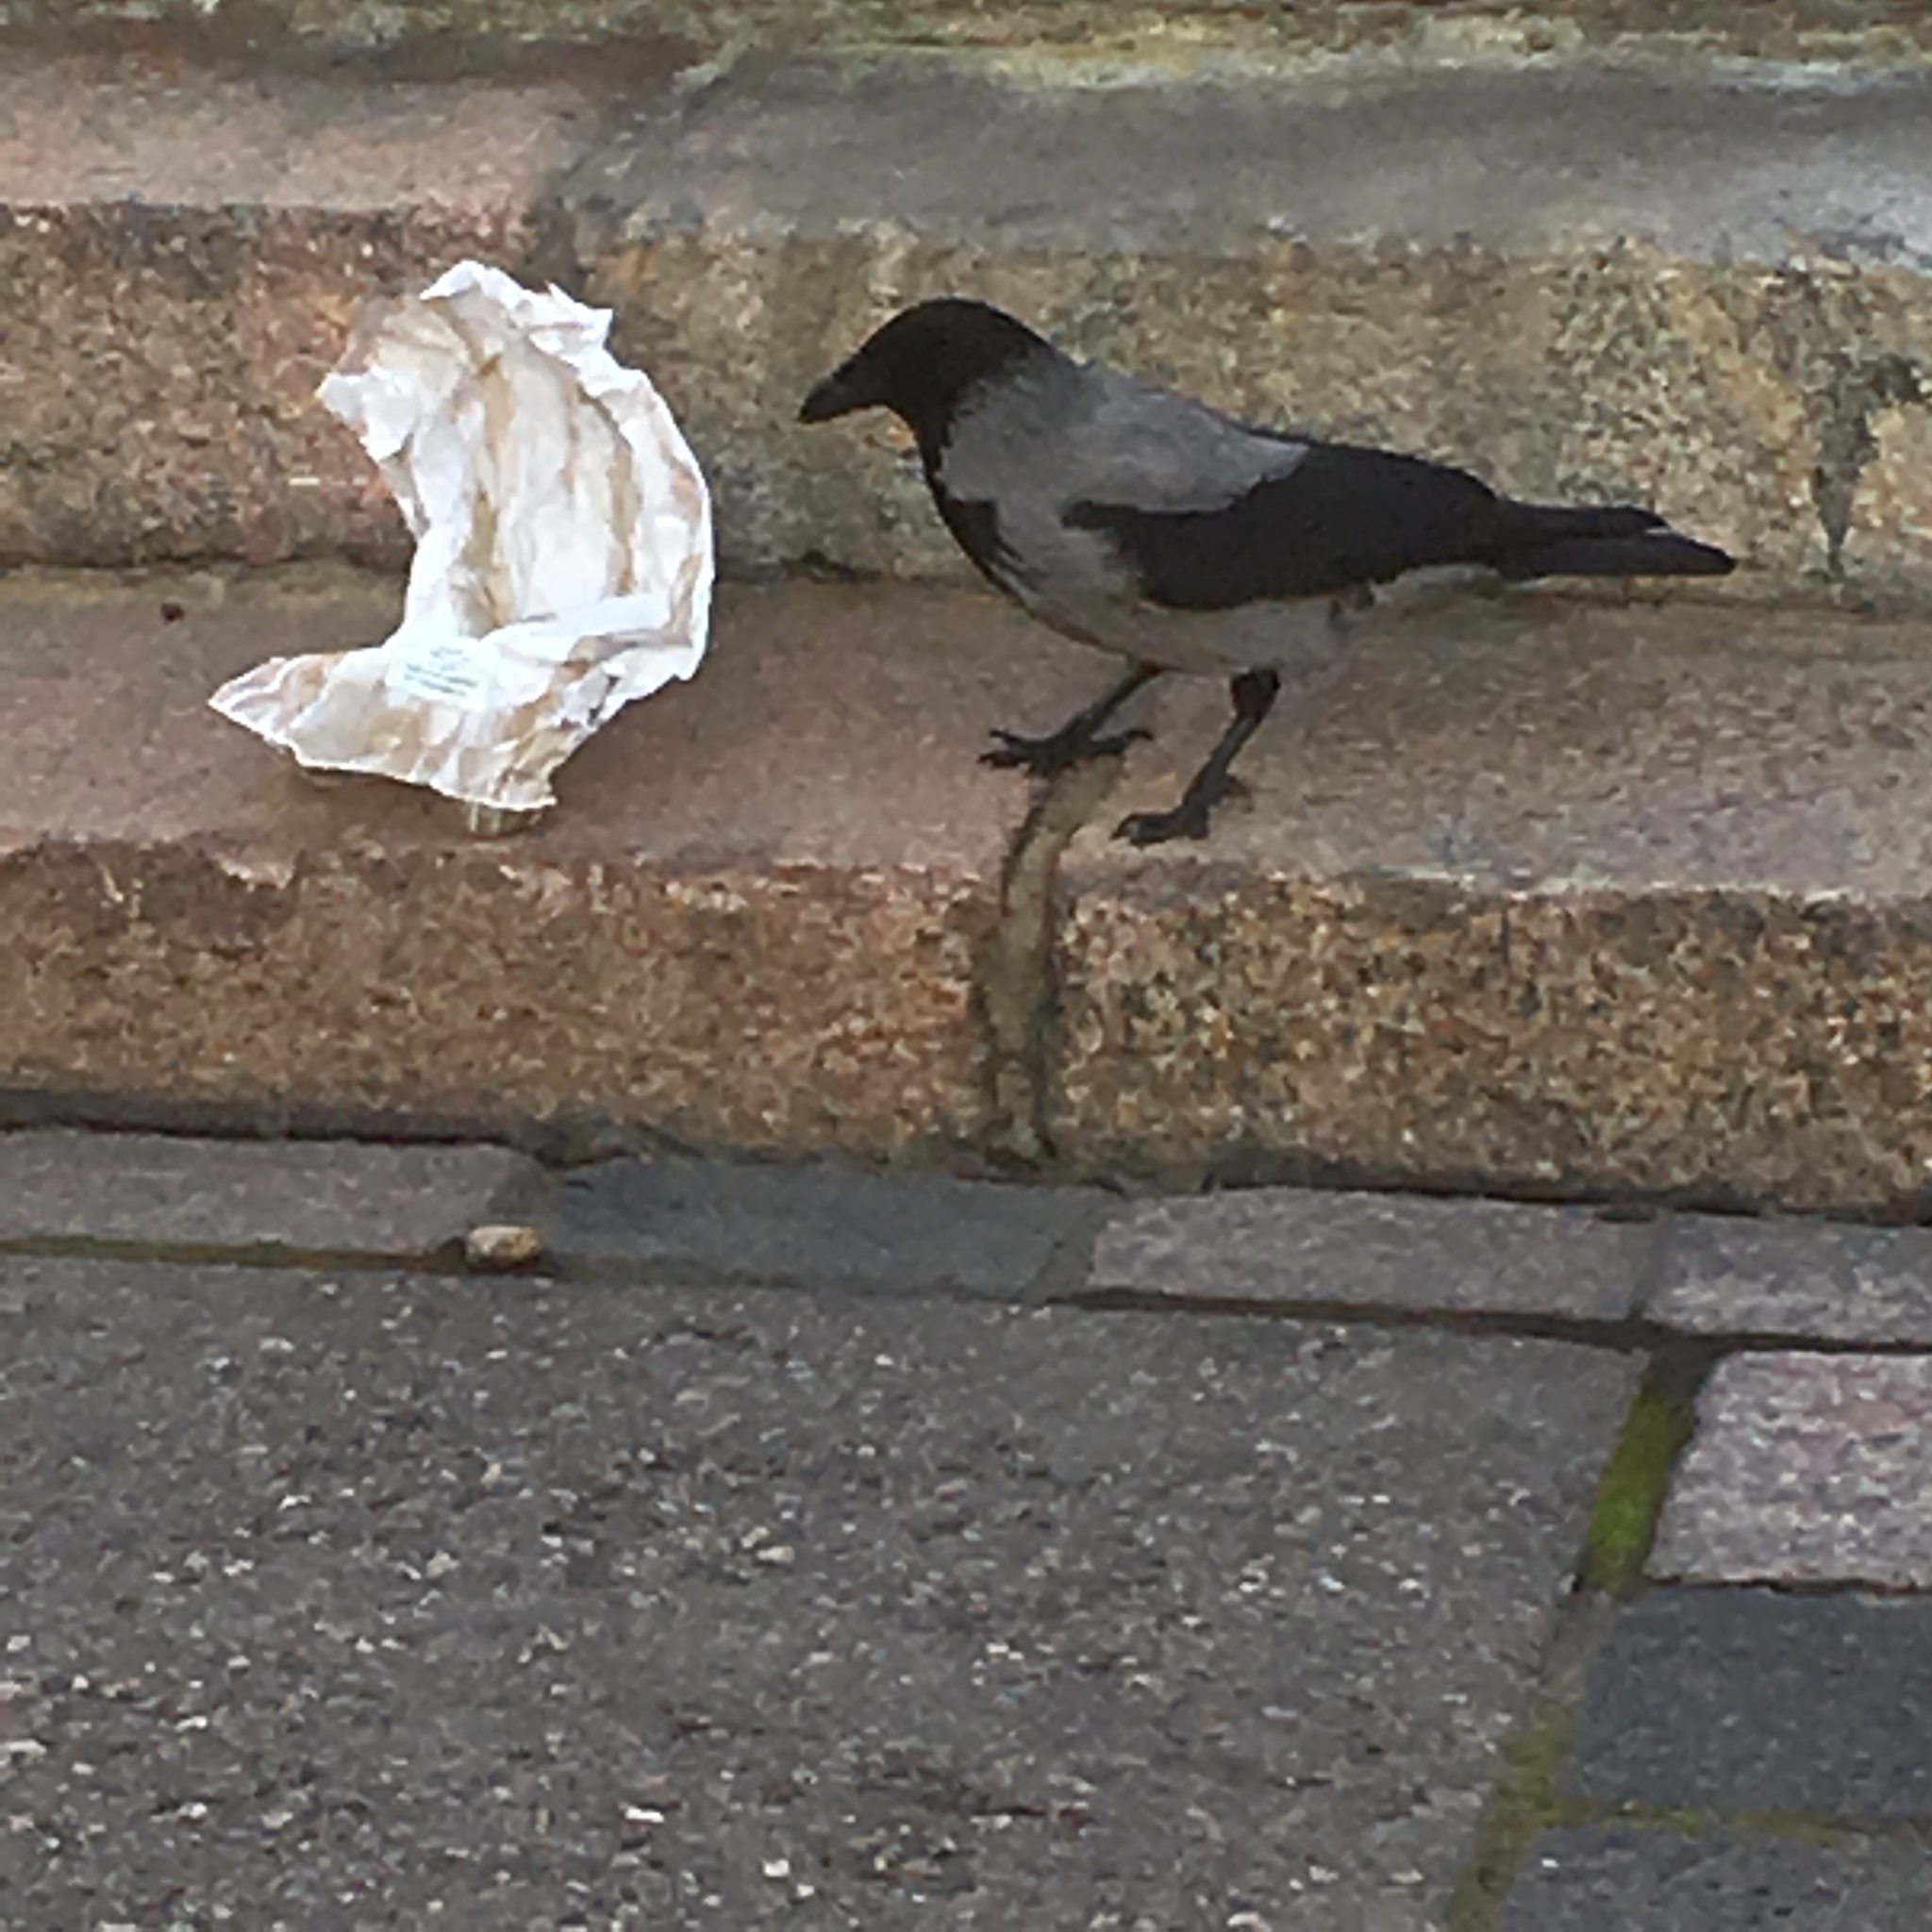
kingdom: Animalia
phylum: Chordata
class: Aves
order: Passeriformes
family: Corvidae
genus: Corvus
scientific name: Corvus cornix
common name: Hooded crow
